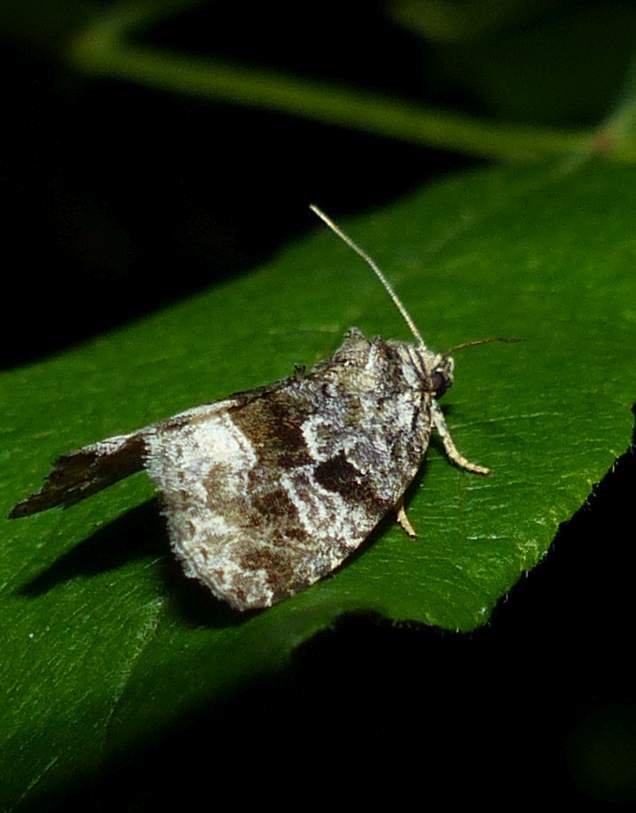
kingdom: Animalia
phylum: Arthropoda
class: Insecta
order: Lepidoptera
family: Noctuidae
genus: Protodeltote
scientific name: Protodeltote muscosula
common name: Large mossy glyph
